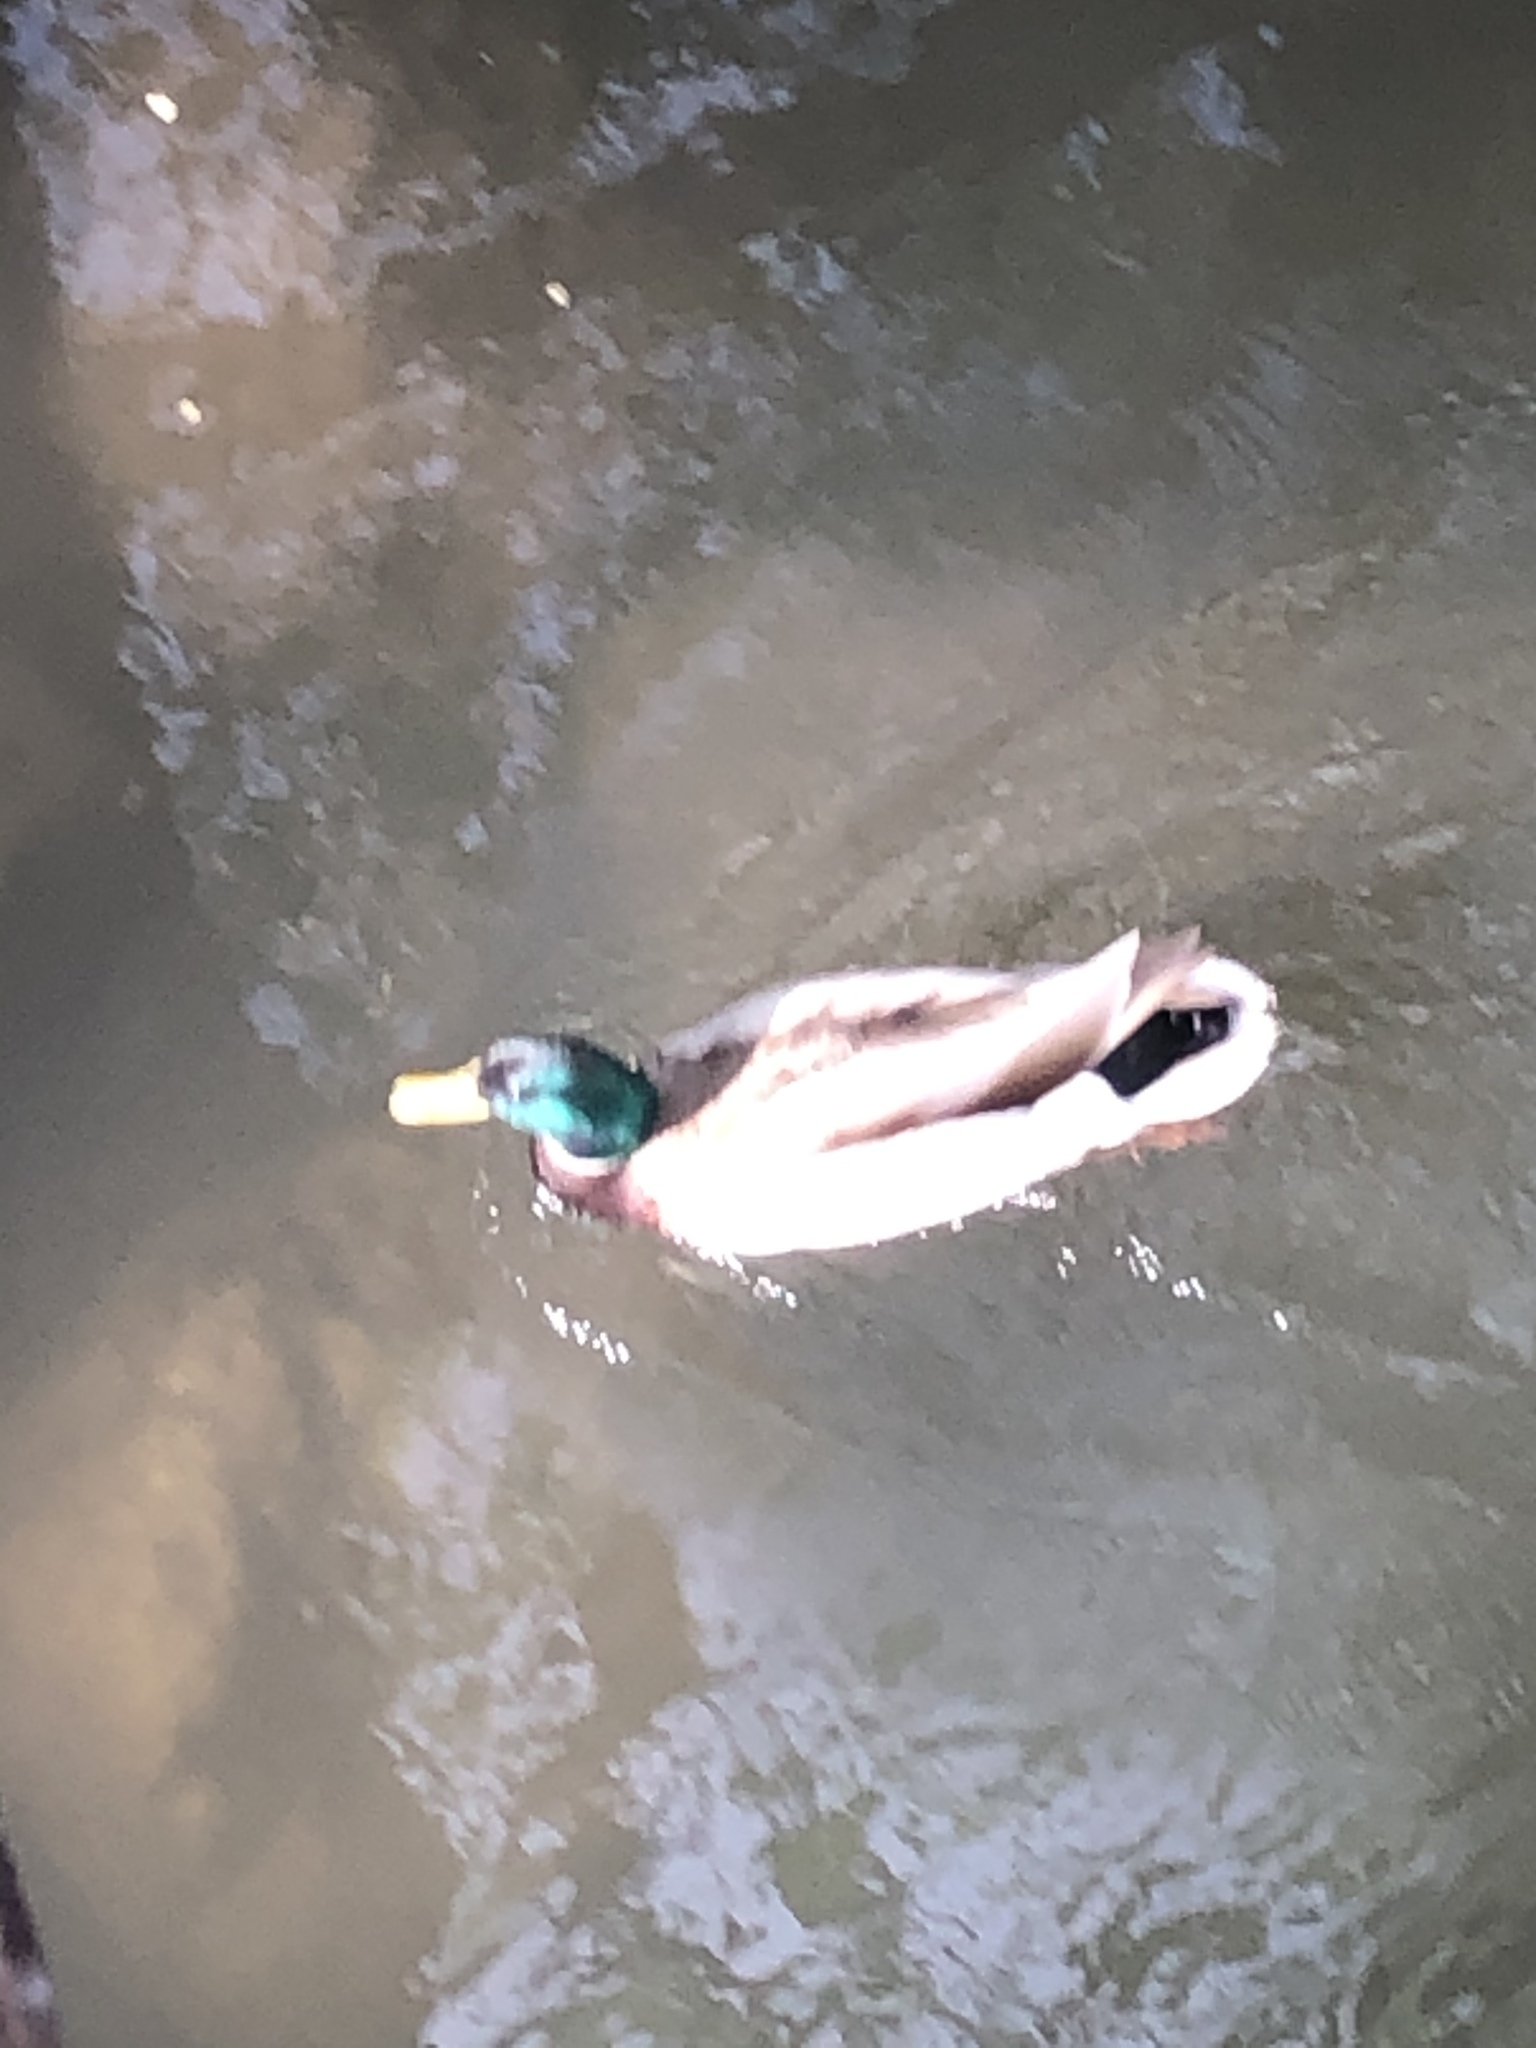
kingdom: Animalia
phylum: Chordata
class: Aves
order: Anseriformes
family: Anatidae
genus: Anas
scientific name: Anas platyrhynchos
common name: Mallard
